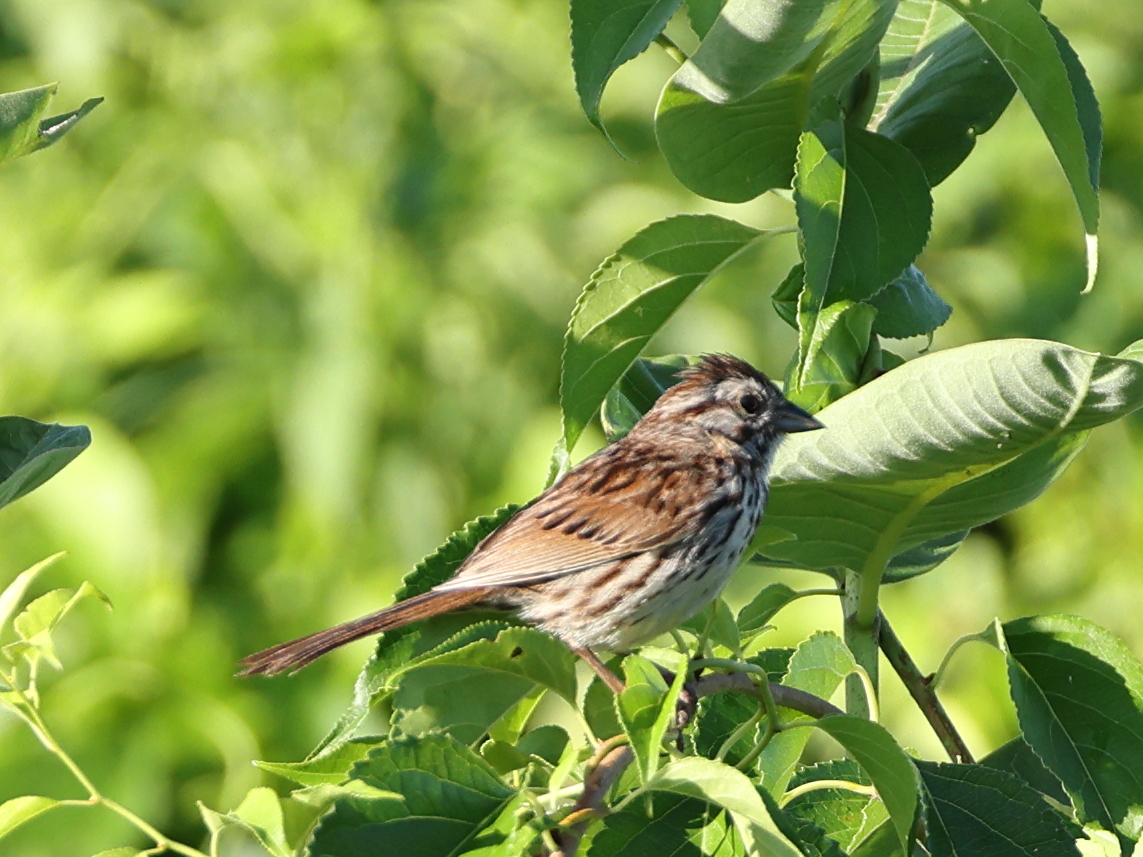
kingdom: Animalia
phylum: Chordata
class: Aves
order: Passeriformes
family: Passerellidae
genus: Melospiza
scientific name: Melospiza melodia
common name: Song sparrow
